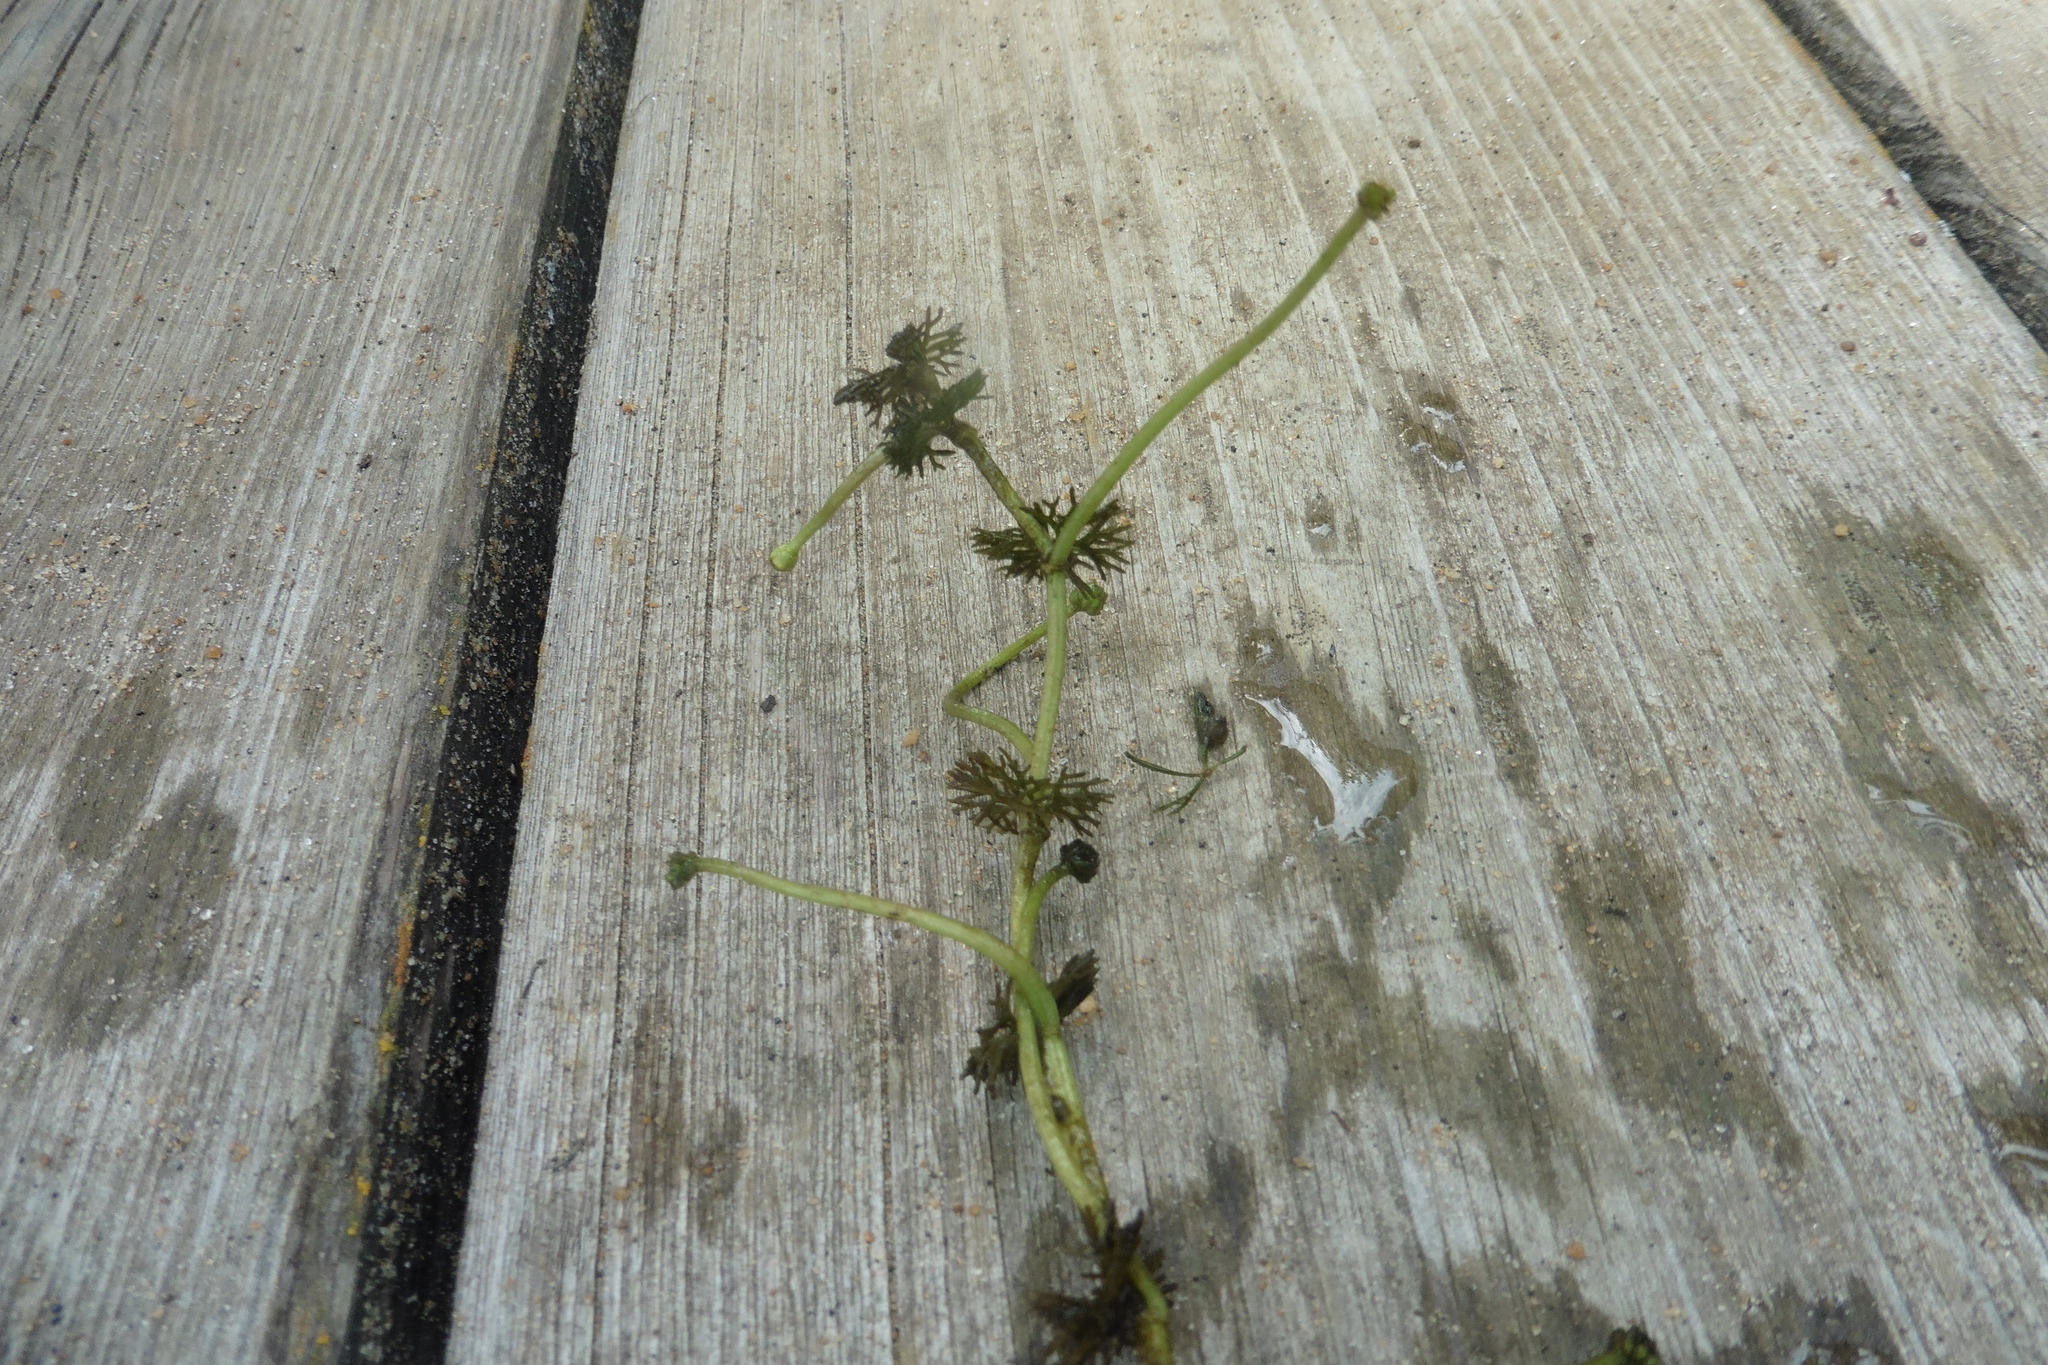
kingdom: Plantae
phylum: Tracheophyta
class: Magnoliopsida
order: Ranunculales
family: Ranunculaceae
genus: Ranunculus
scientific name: Ranunculus circinatus
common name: Fan-leaved water-crowfoot
